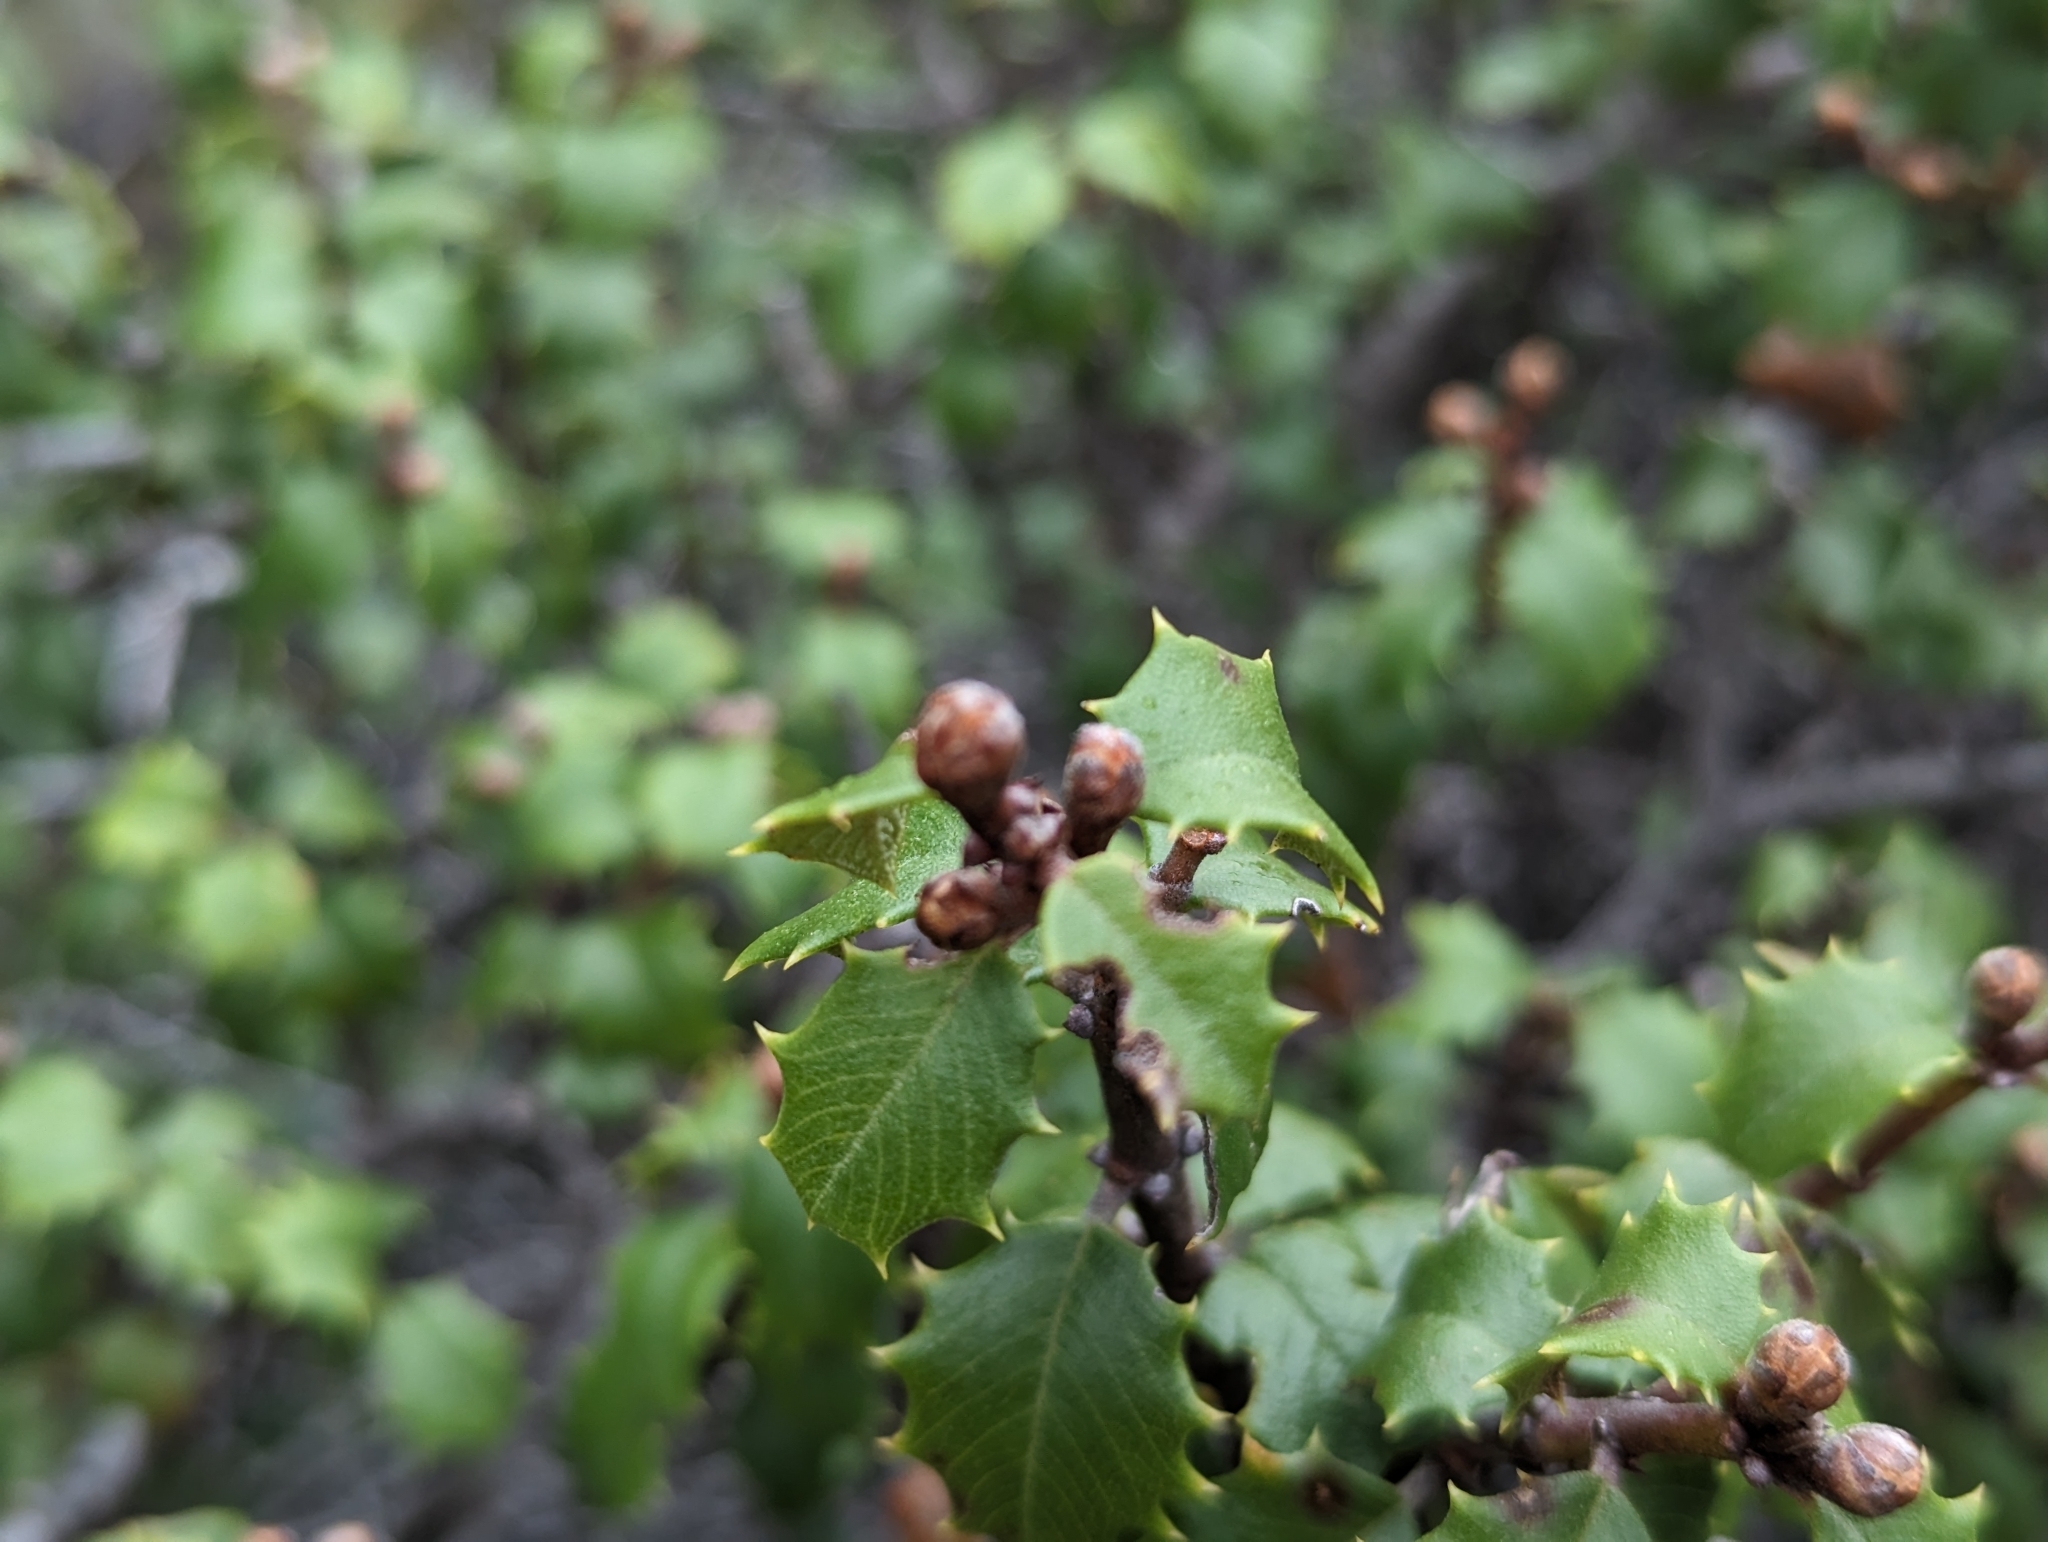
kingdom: Plantae
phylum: Tracheophyta
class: Magnoliopsida
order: Rosales
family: Rhamnaceae
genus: Ceanothus
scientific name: Ceanothus jepsonii
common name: Muskbrush
